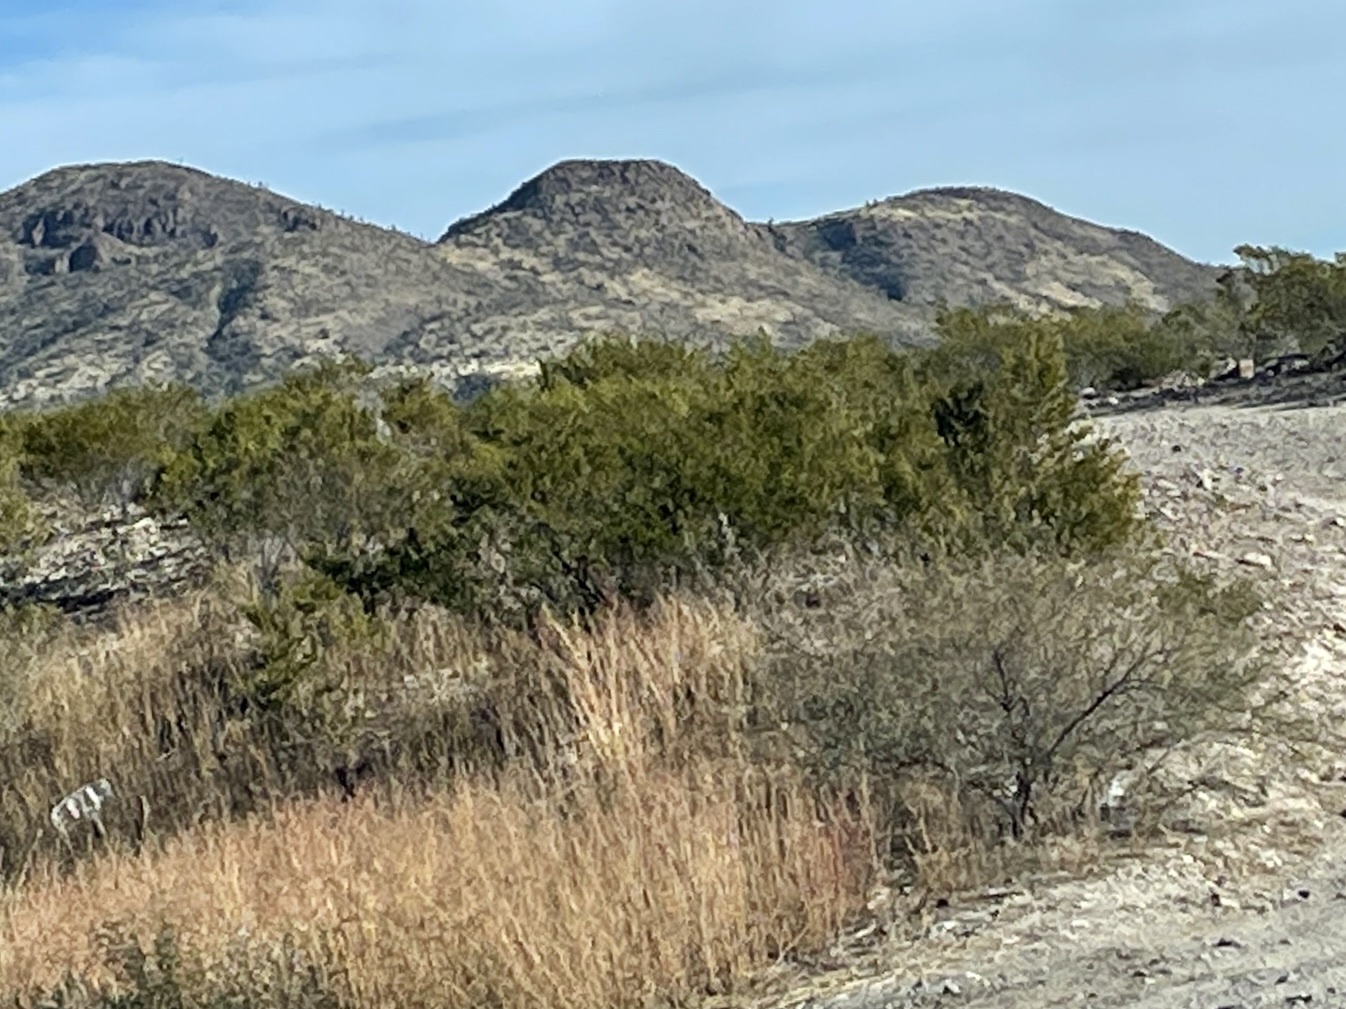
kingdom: Plantae
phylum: Tracheophyta
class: Magnoliopsida
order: Zygophyllales
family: Zygophyllaceae
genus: Larrea
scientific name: Larrea tridentata
